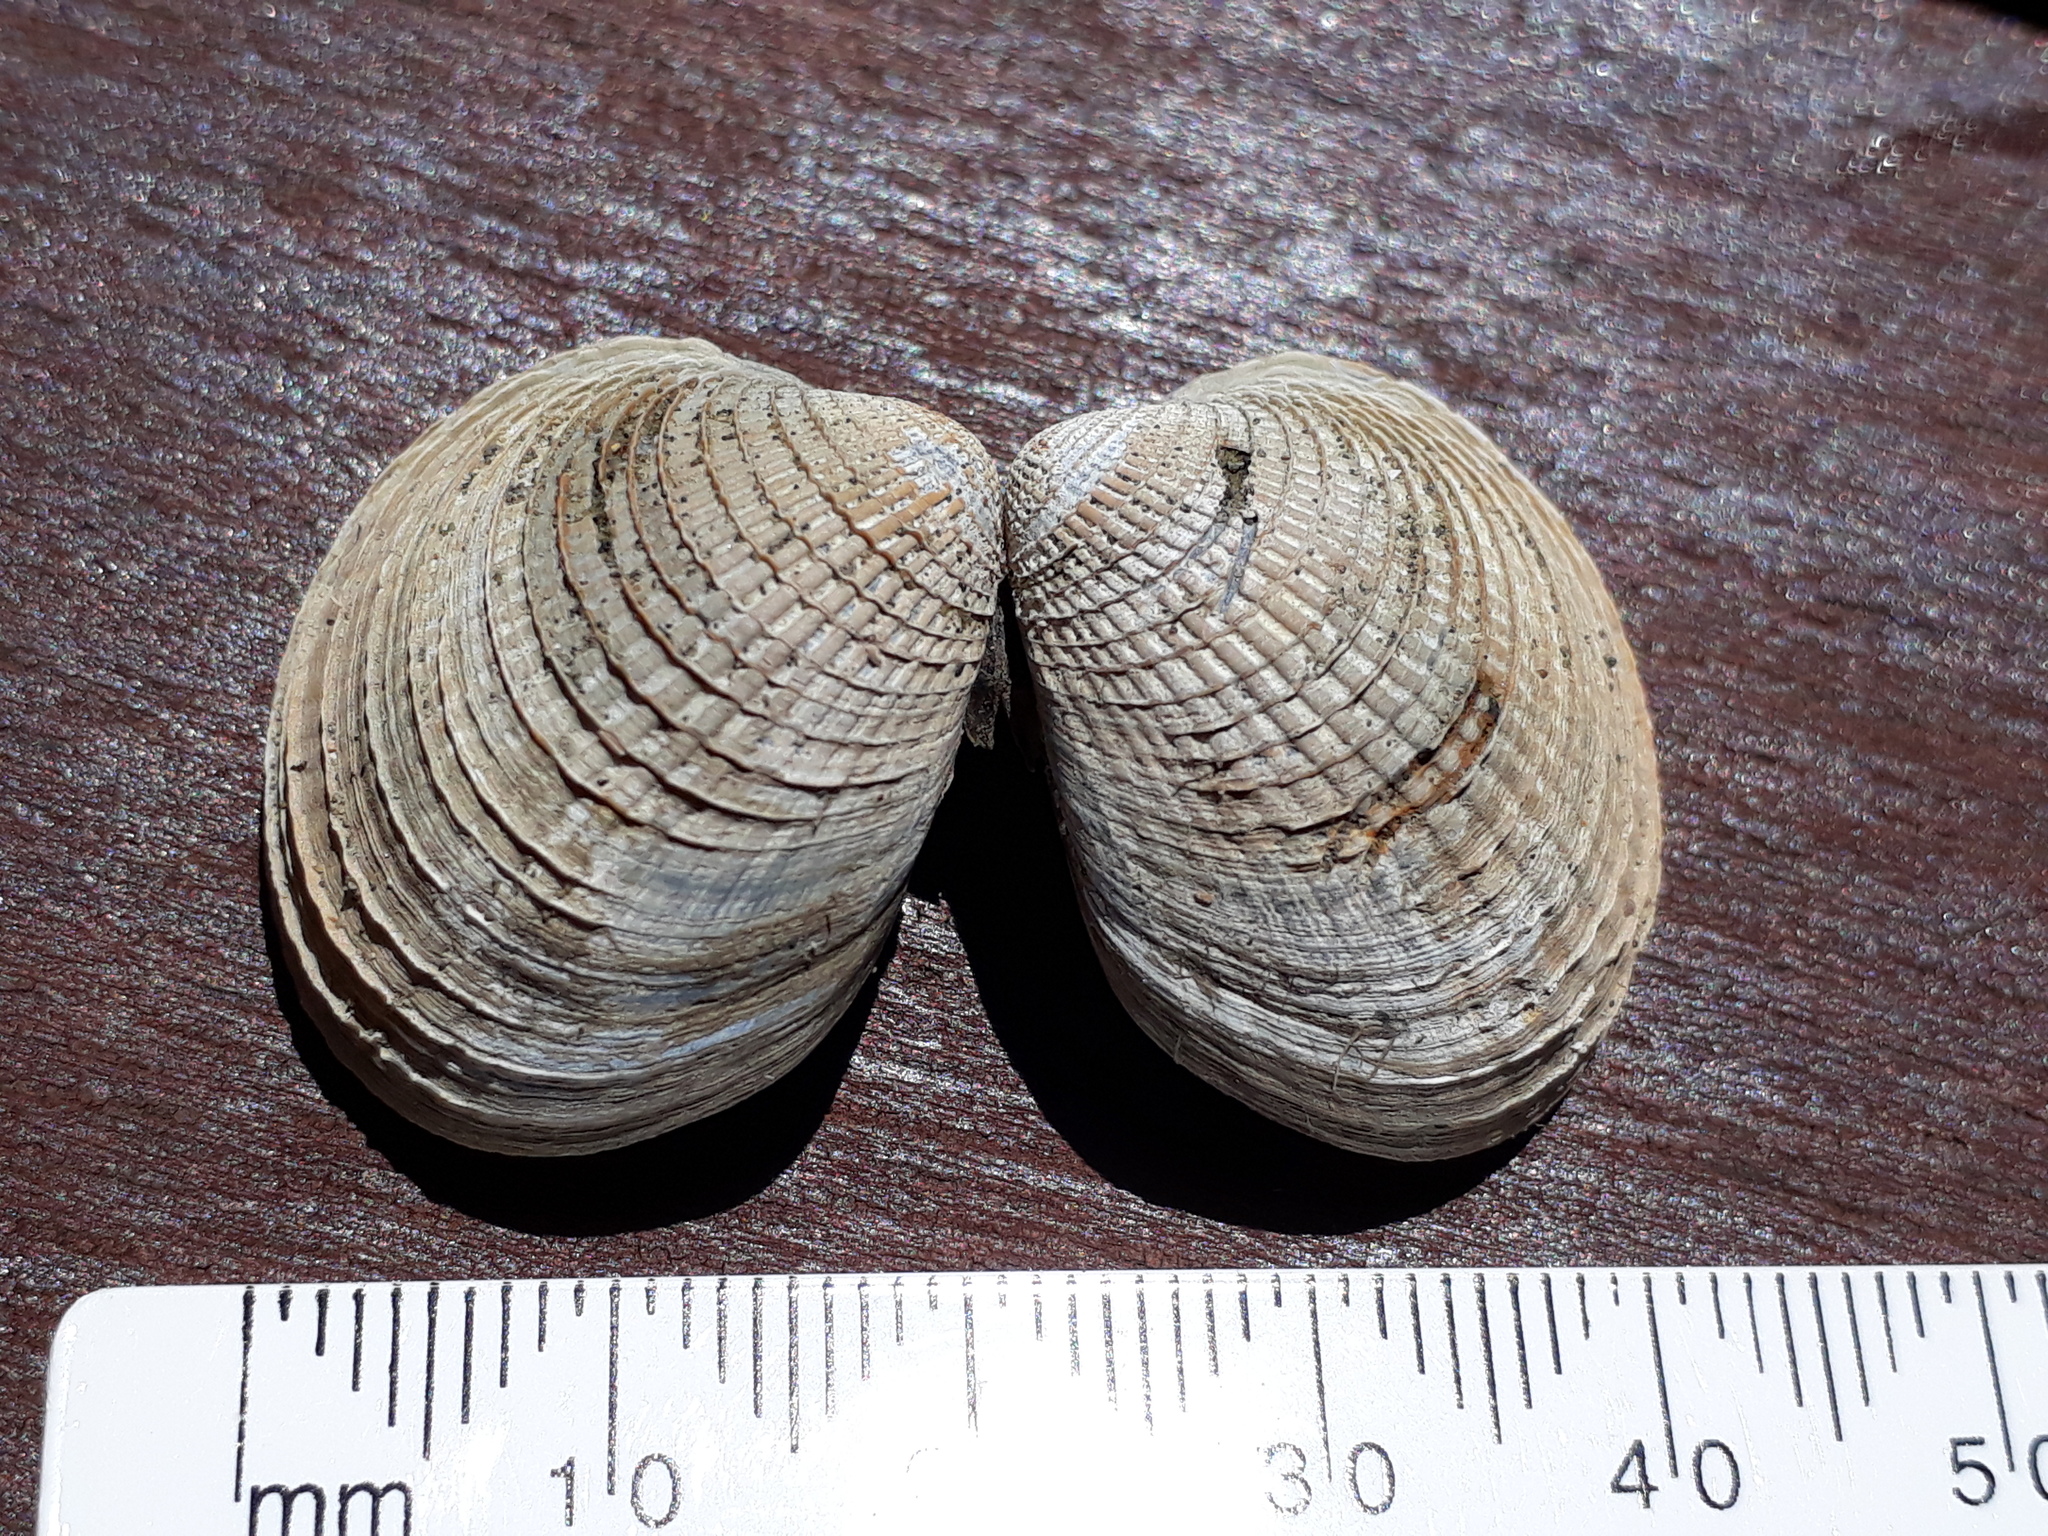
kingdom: Animalia
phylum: Mollusca
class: Bivalvia
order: Venerida
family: Veneridae
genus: Austrovenus
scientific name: Austrovenus stutchburyi
